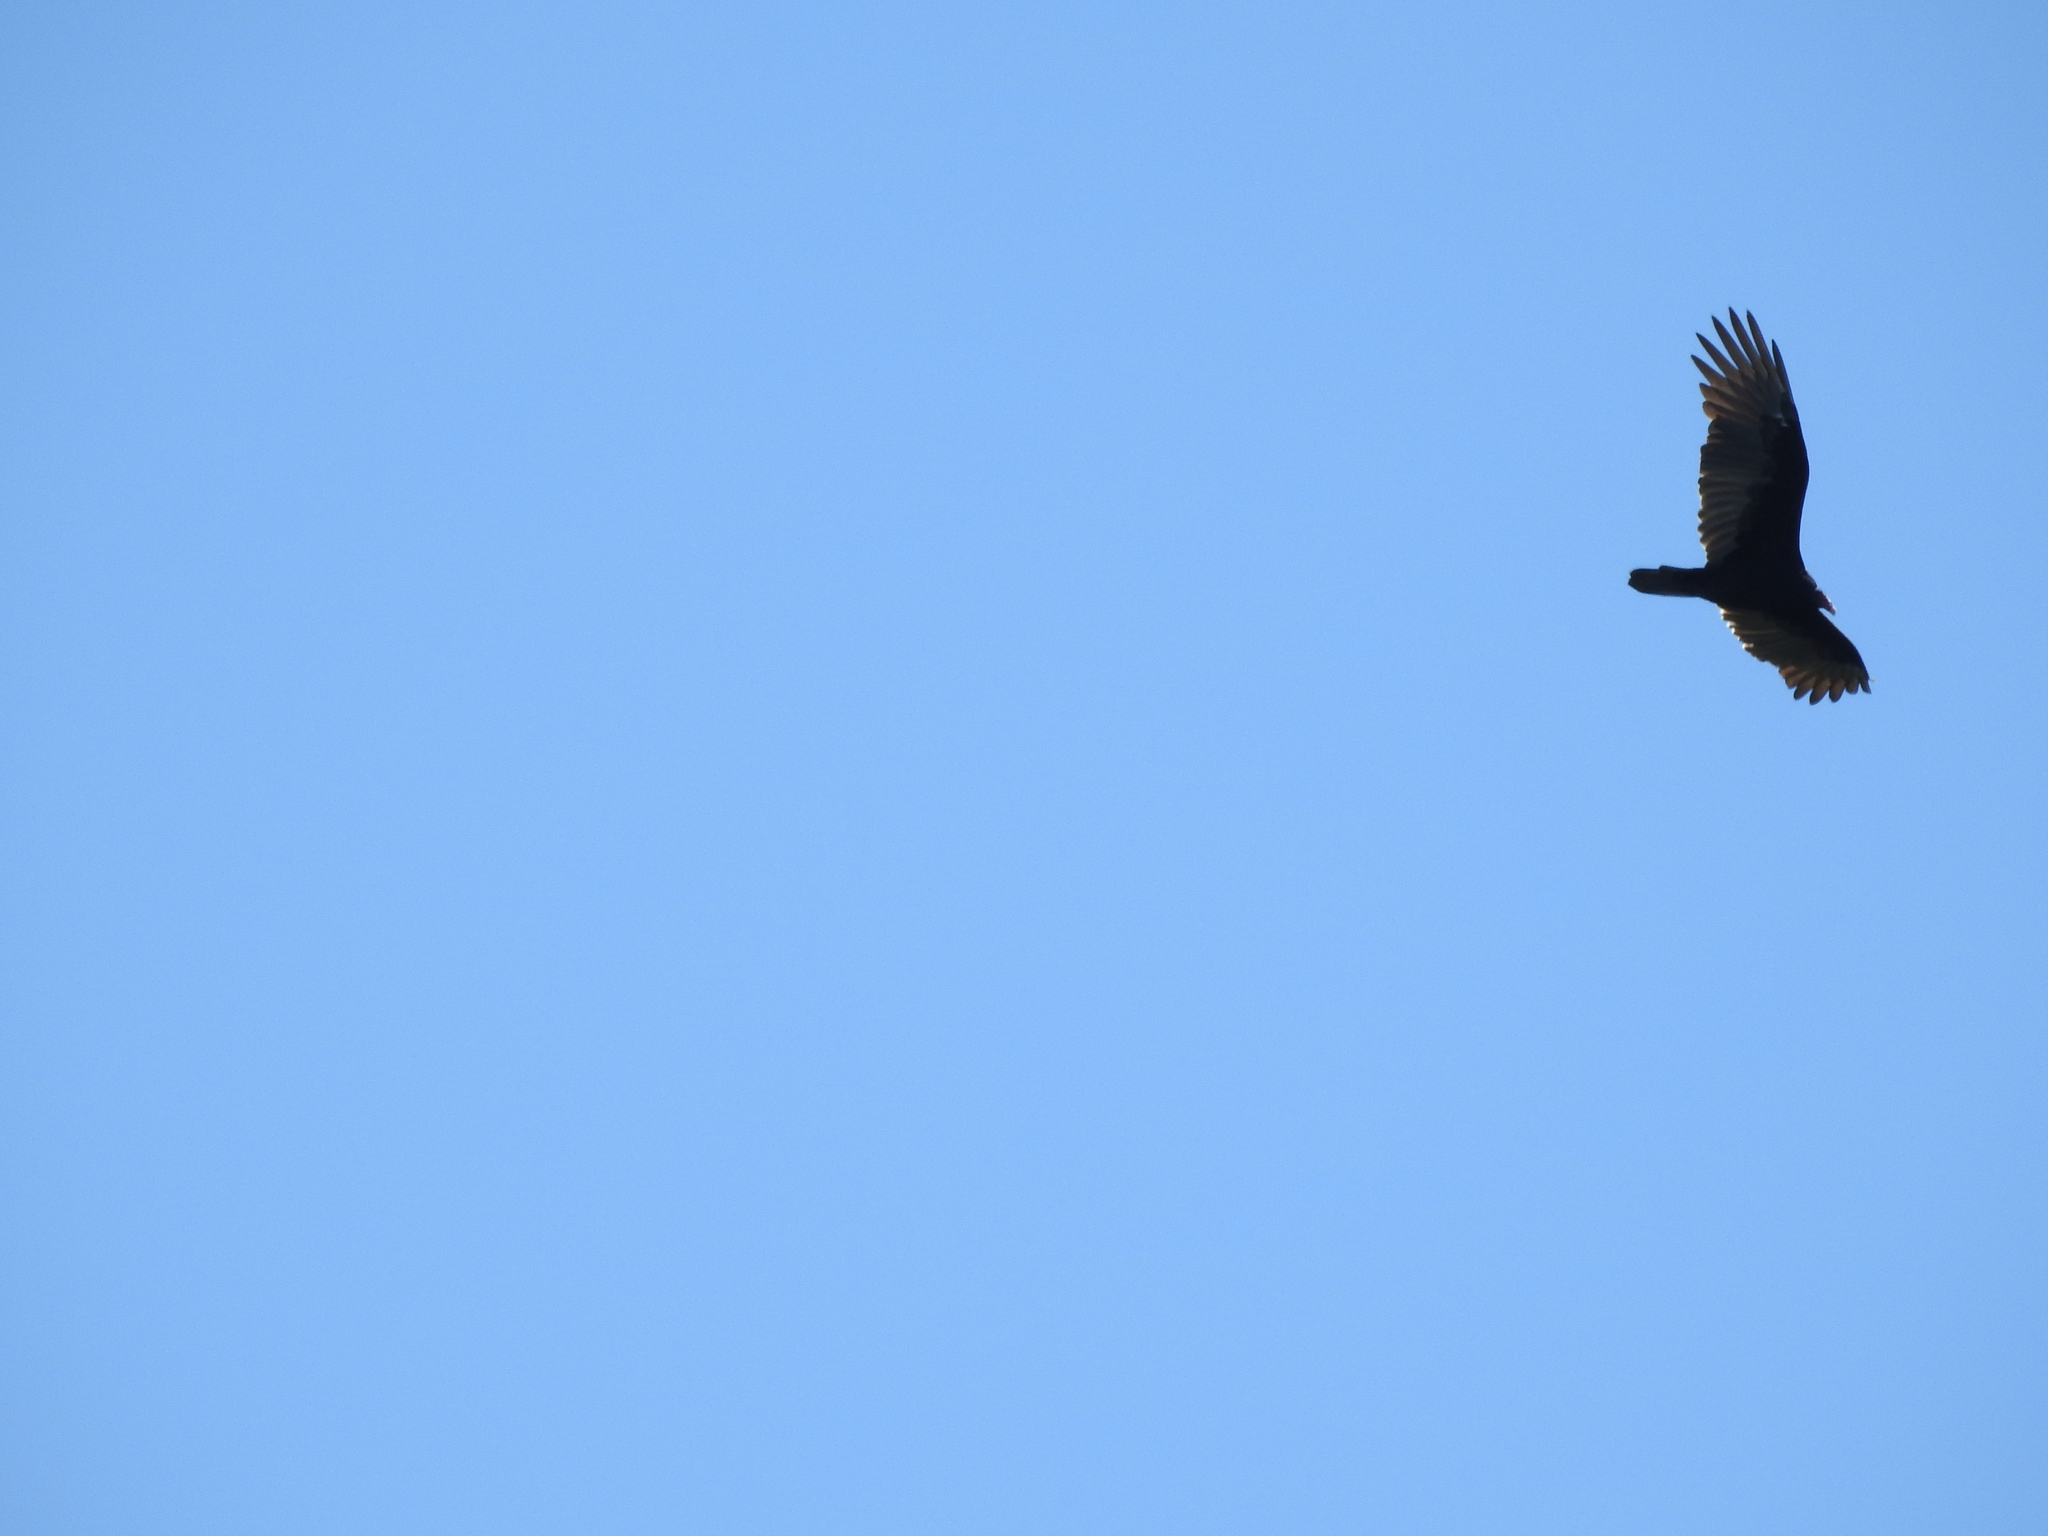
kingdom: Animalia
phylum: Chordata
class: Aves
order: Accipitriformes
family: Cathartidae
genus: Cathartes
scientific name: Cathartes aura
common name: Turkey vulture
